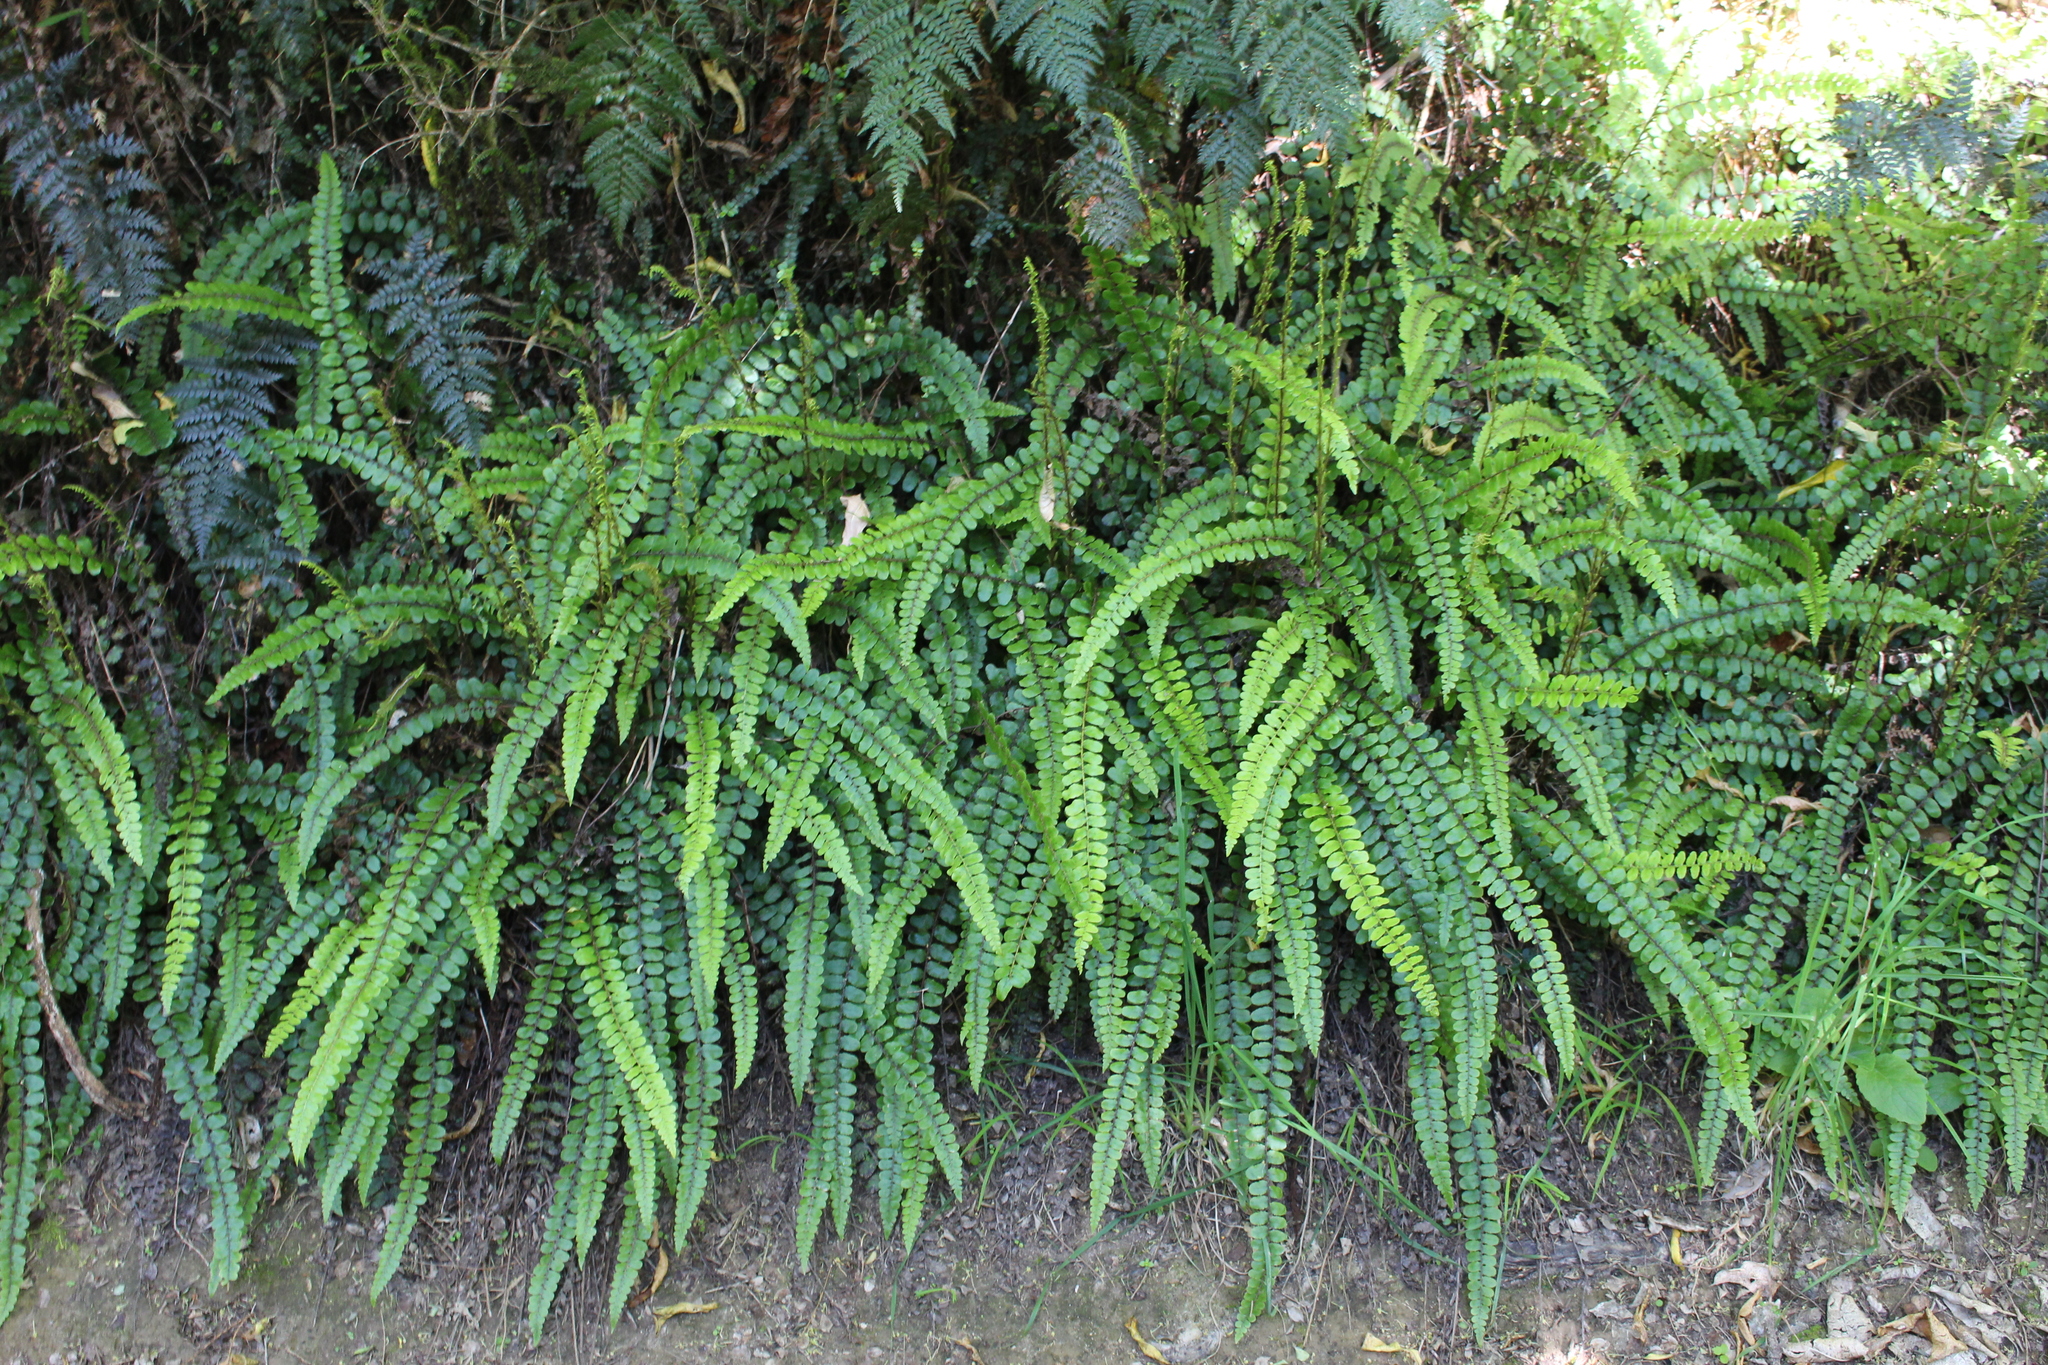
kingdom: Plantae
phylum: Tracheophyta
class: Polypodiopsida
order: Polypodiales
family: Blechnaceae
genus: Cranfillia
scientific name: Cranfillia fluviatilis
